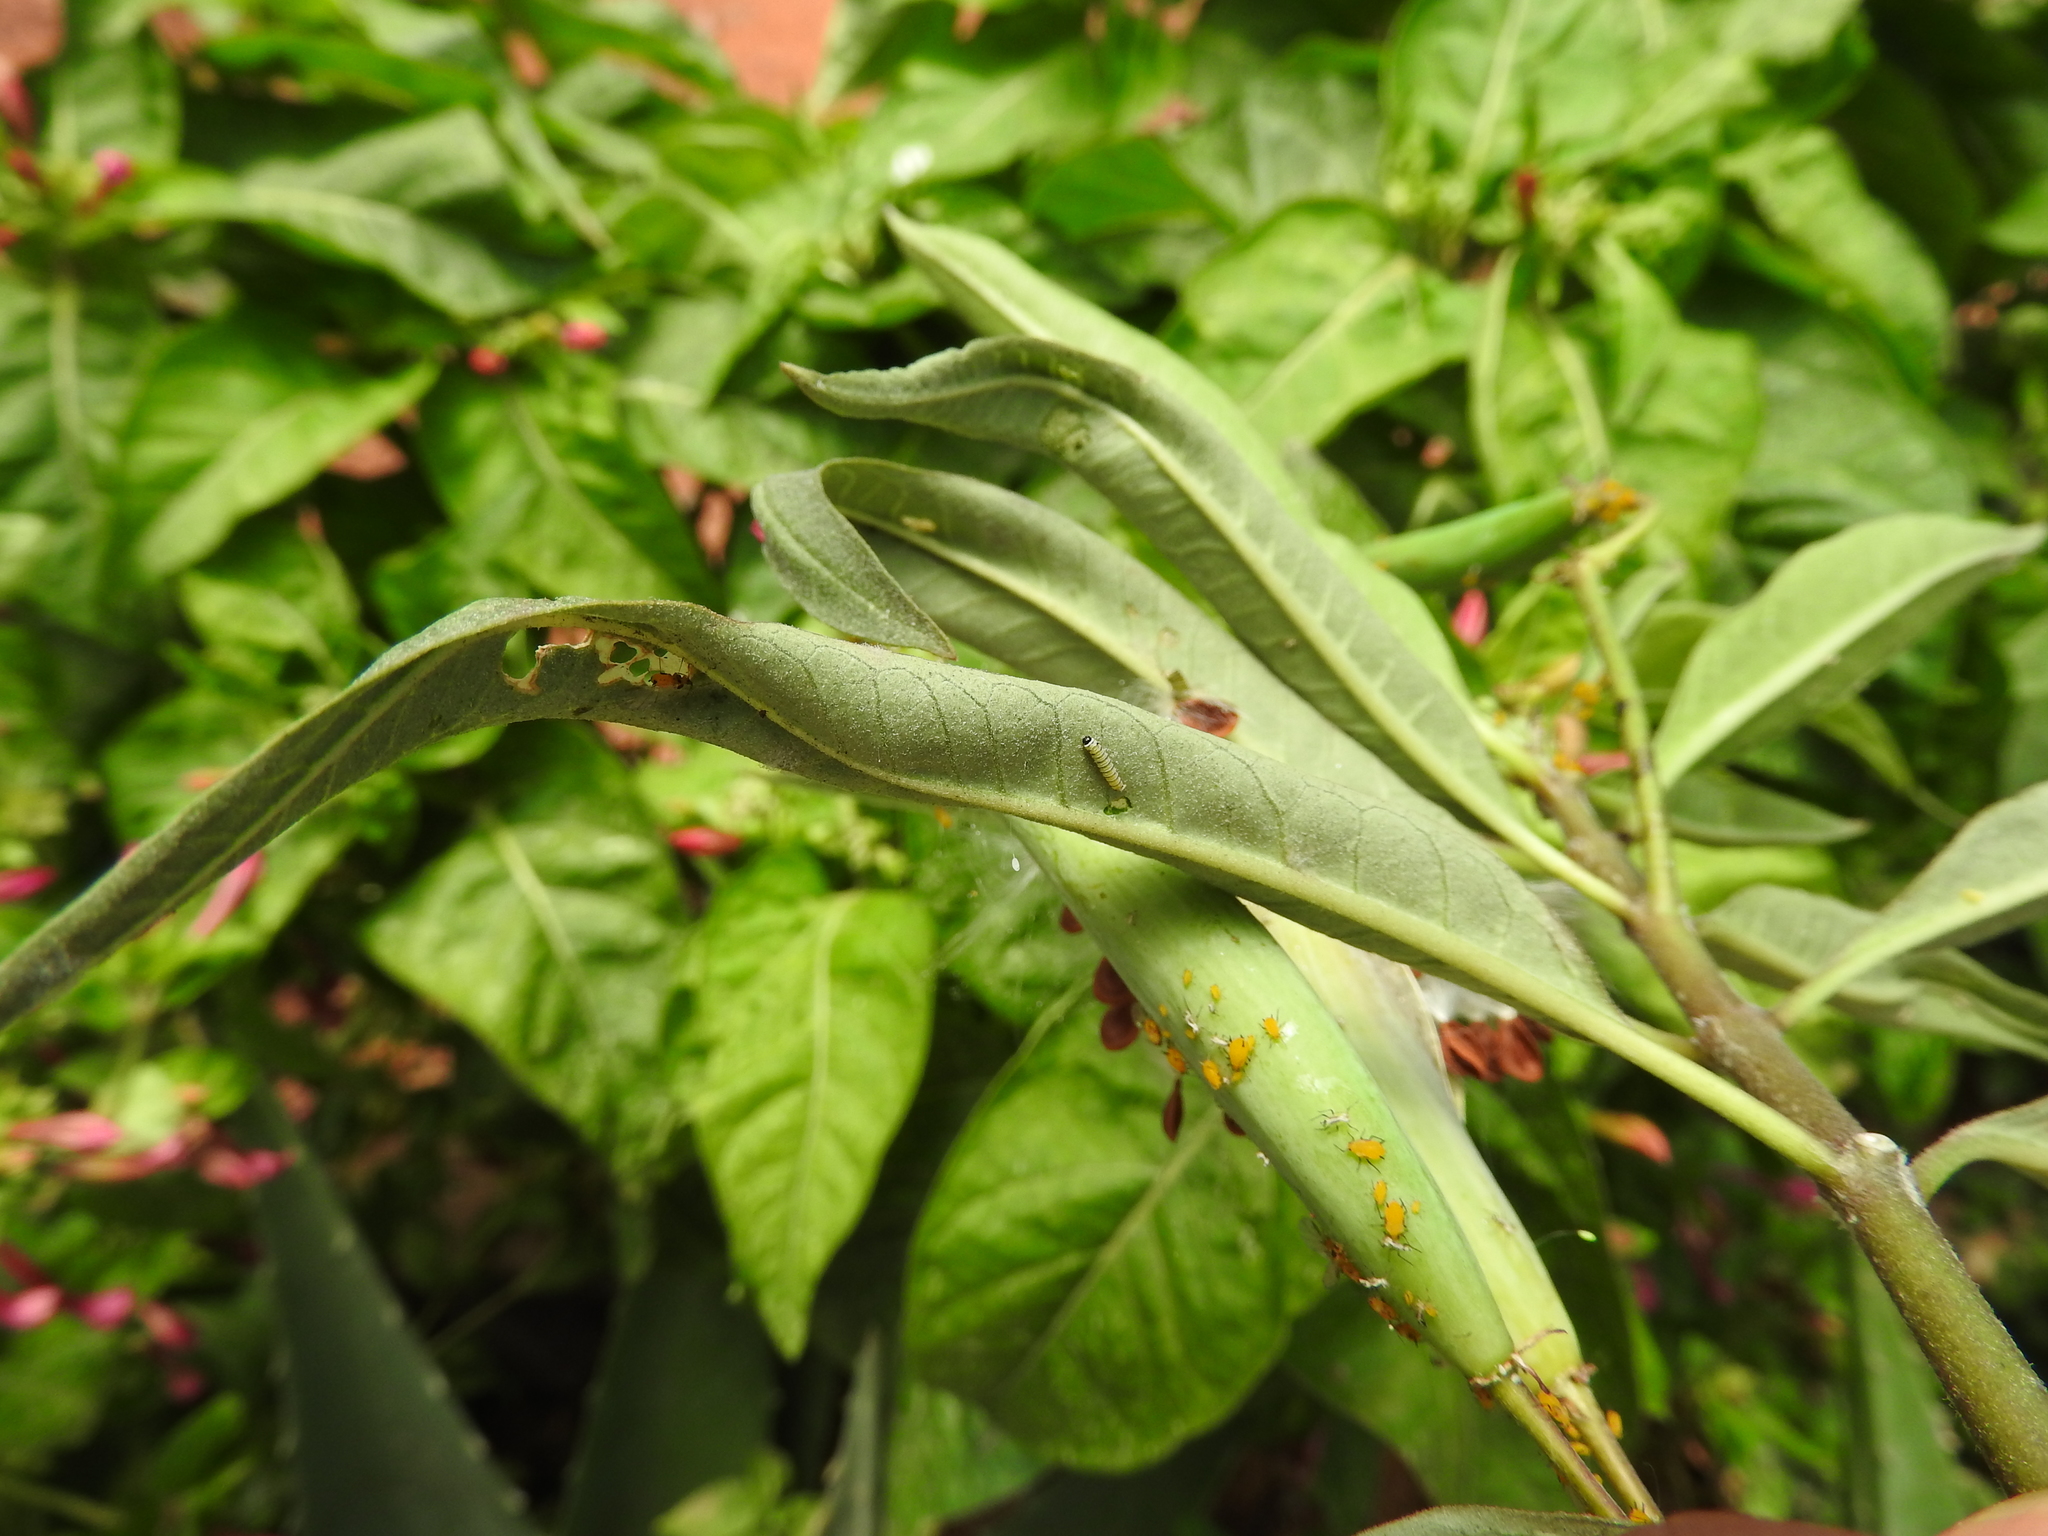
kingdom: Animalia
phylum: Arthropoda
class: Insecta
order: Lepidoptera
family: Nymphalidae
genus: Danaus
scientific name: Danaus plexippus
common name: Monarch
